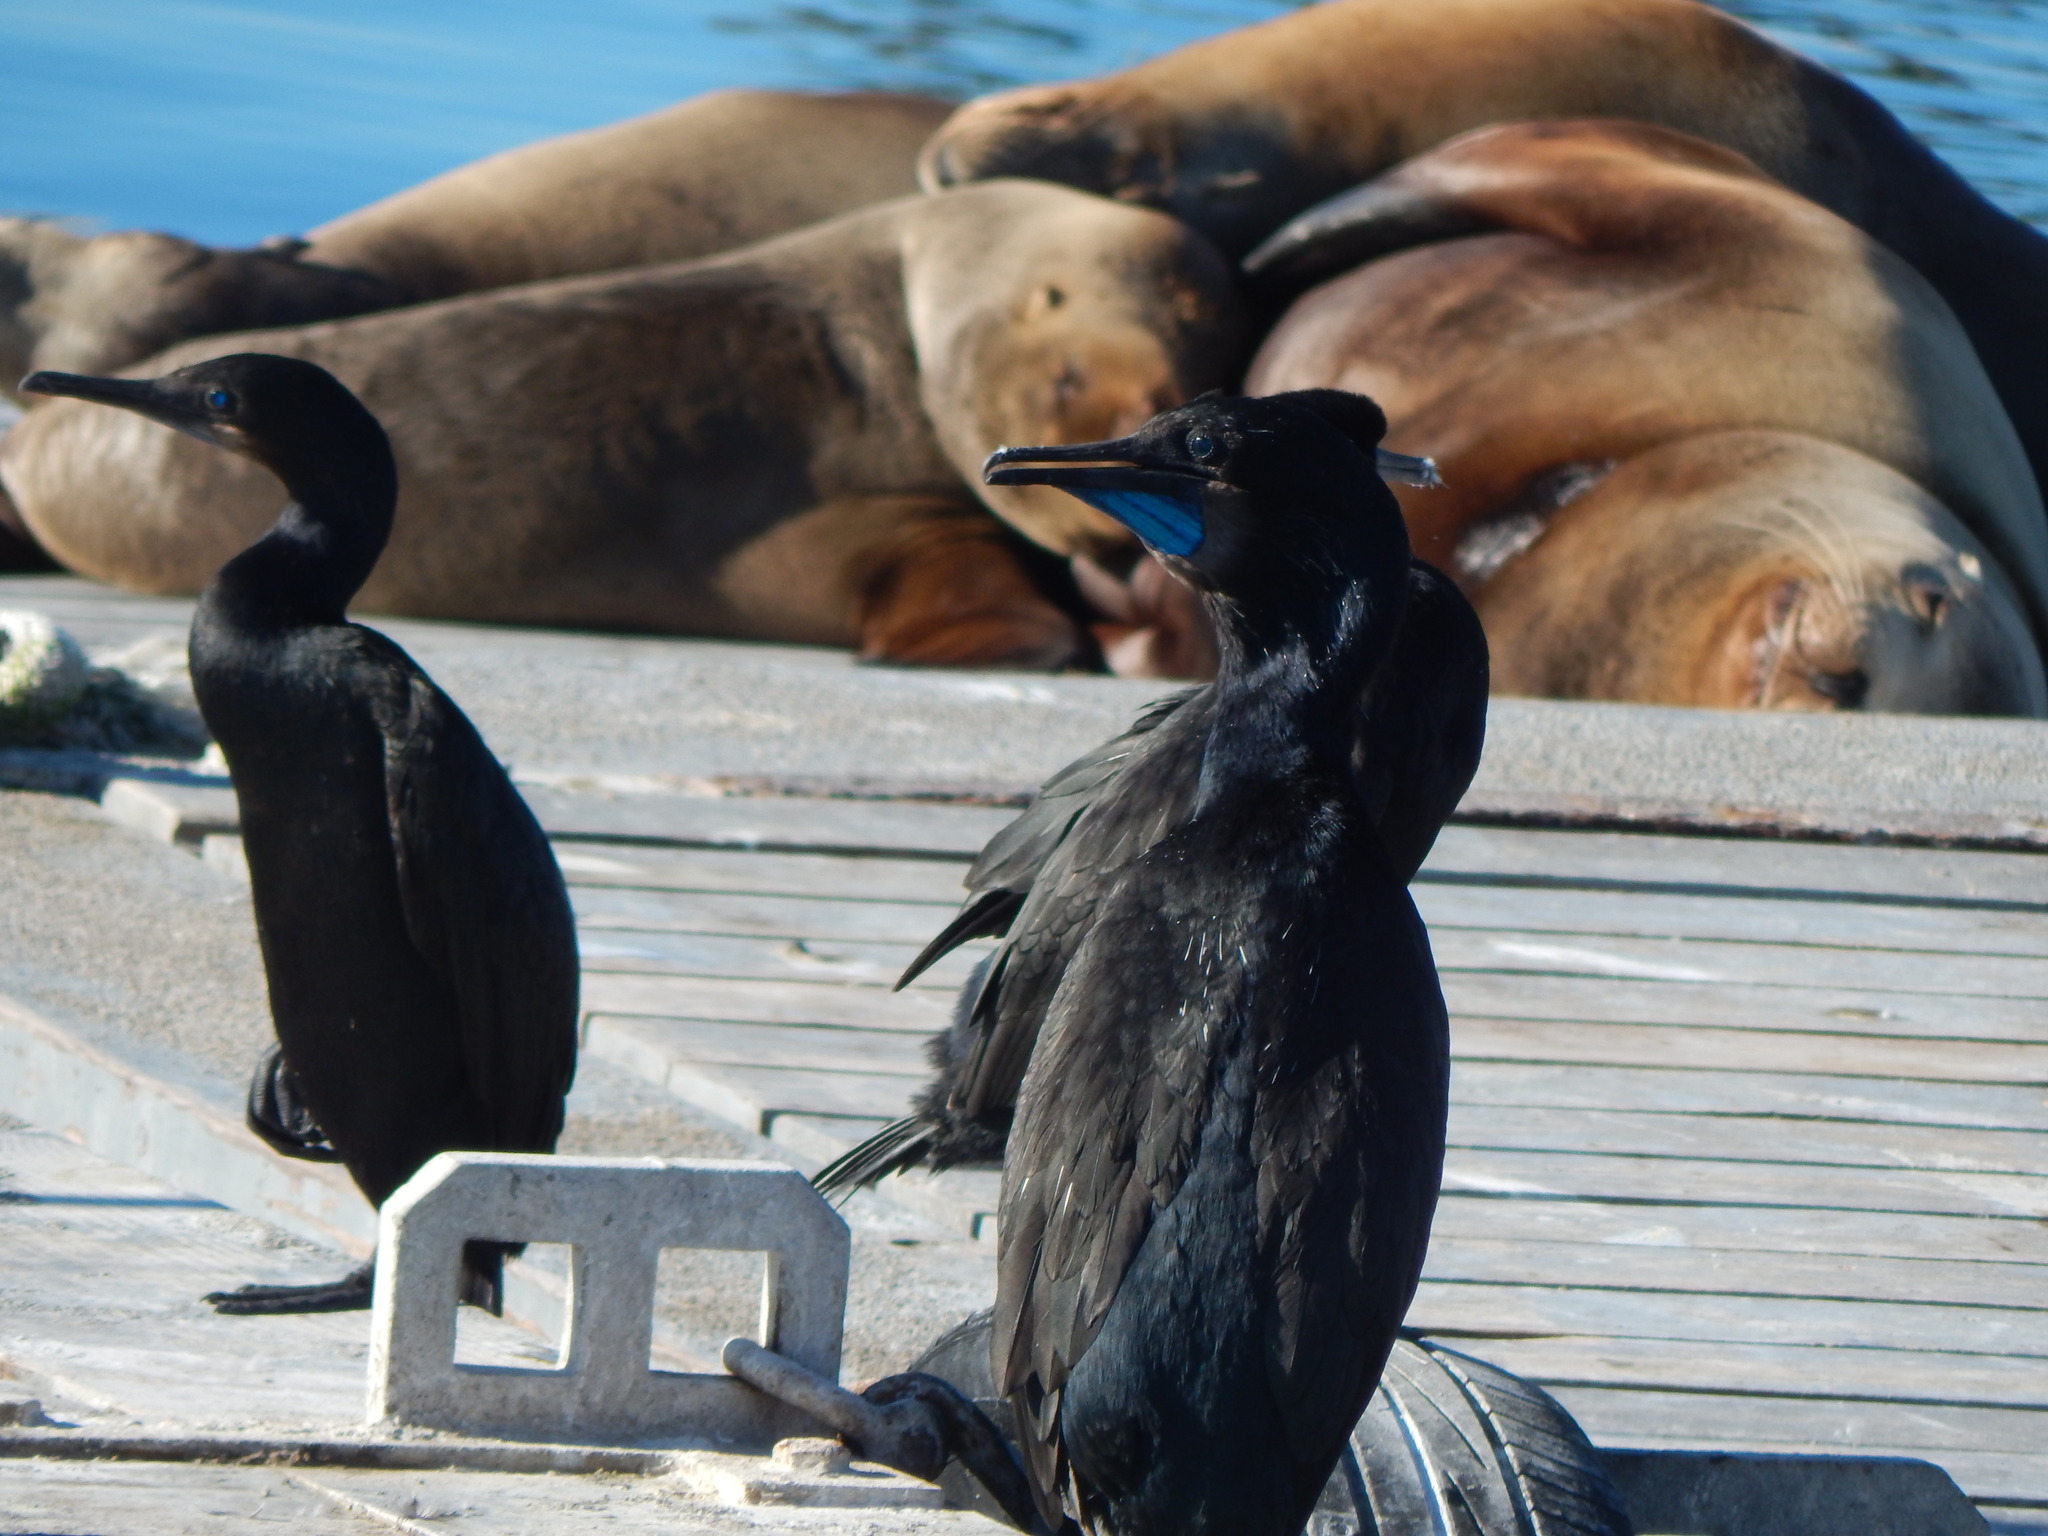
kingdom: Animalia
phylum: Chordata
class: Aves
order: Suliformes
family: Phalacrocoracidae
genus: Urile
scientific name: Urile penicillatus
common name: Brandt's cormorant
